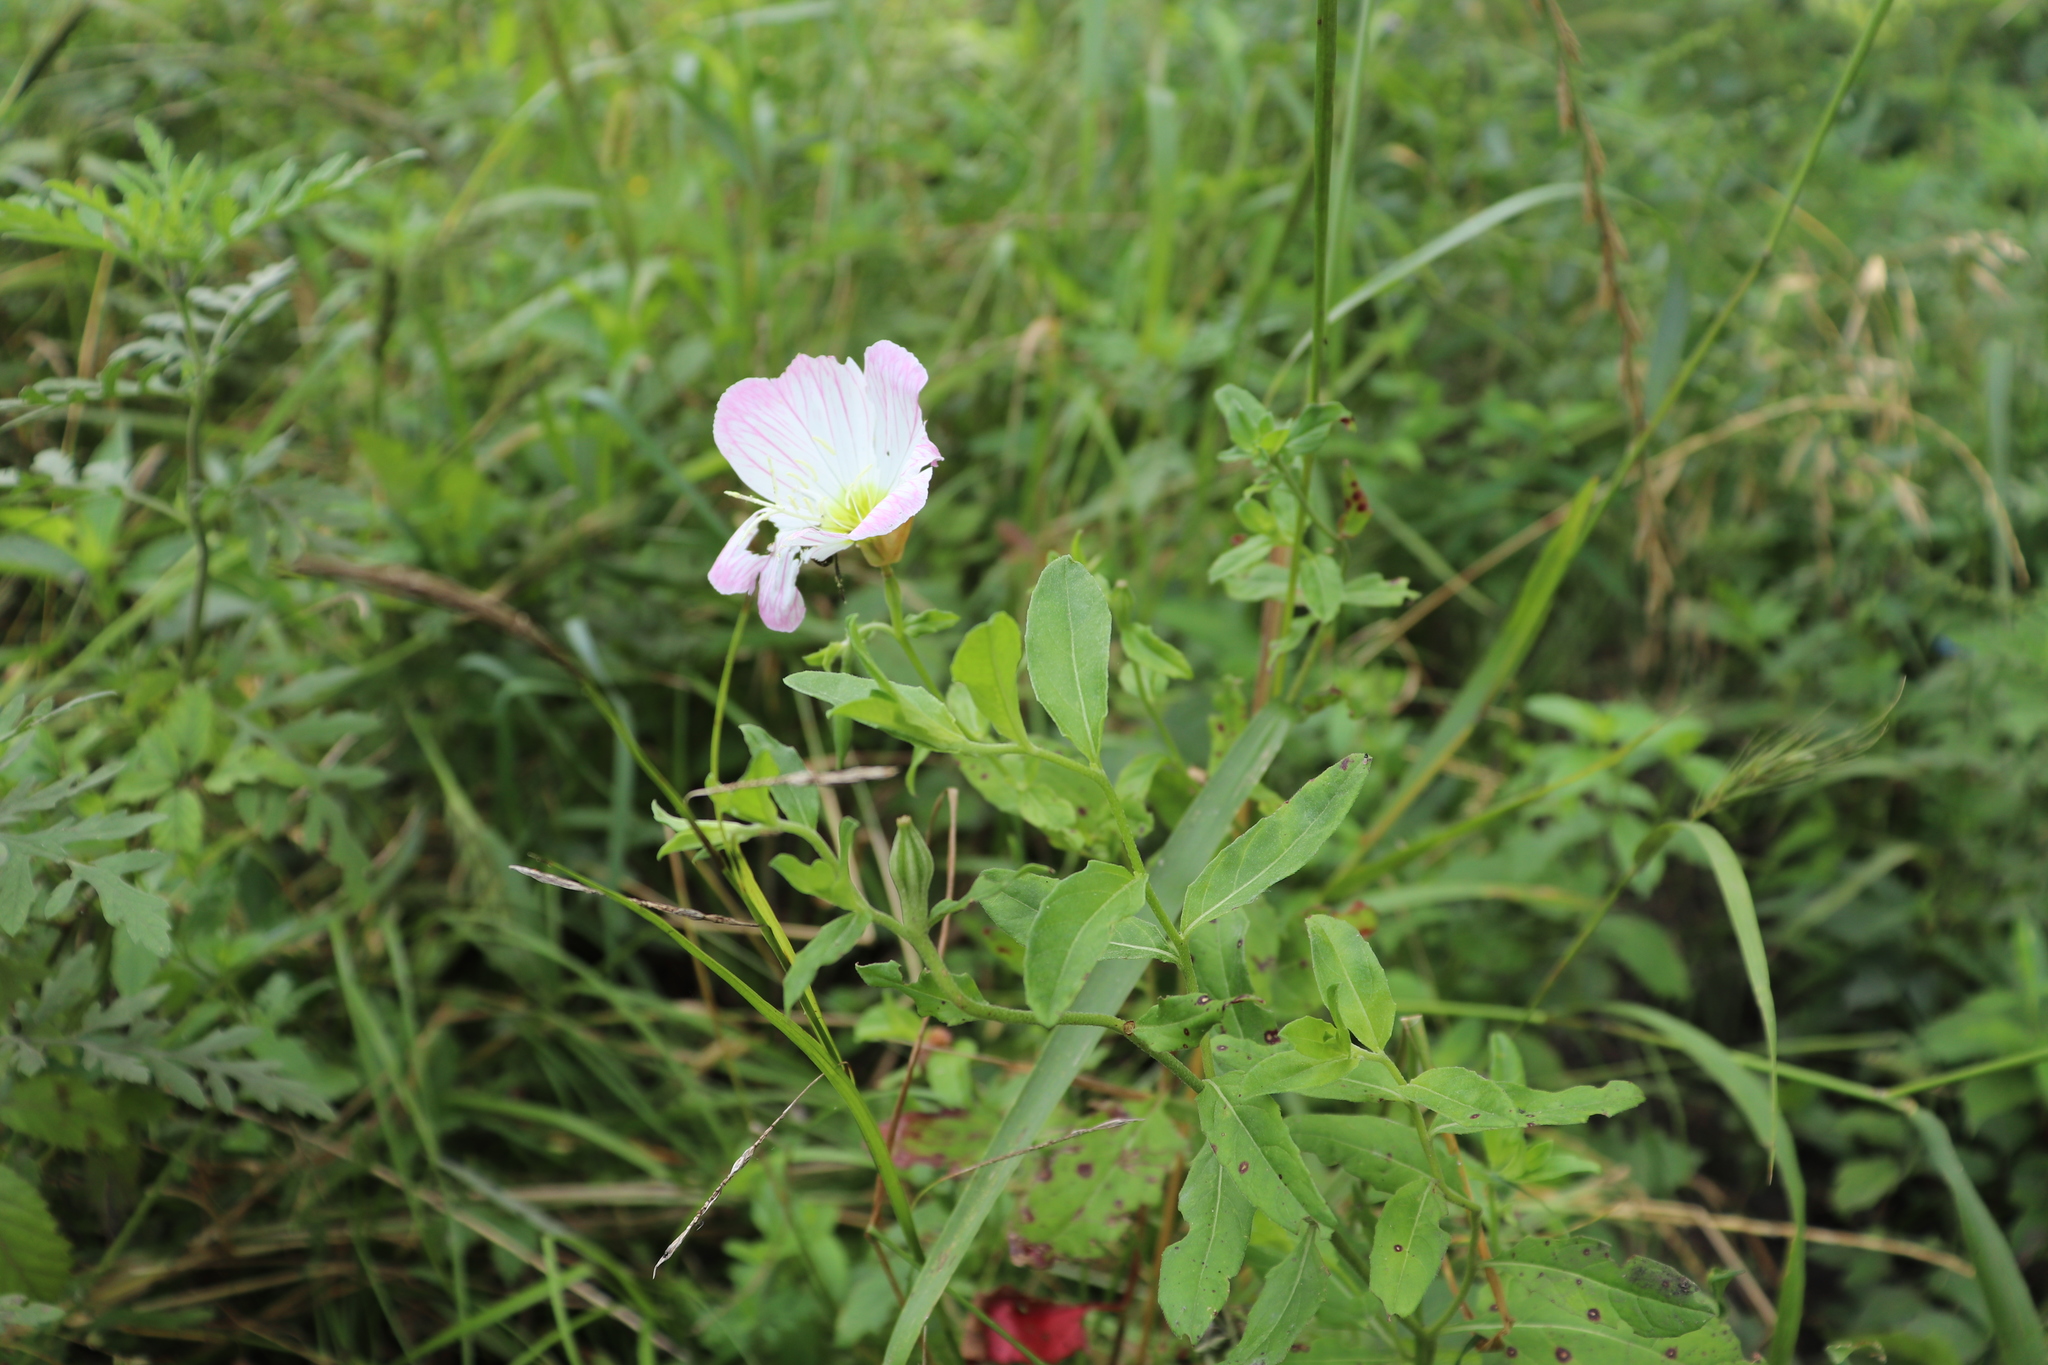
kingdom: Plantae
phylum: Tracheophyta
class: Magnoliopsida
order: Myrtales
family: Onagraceae
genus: Oenothera
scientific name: Oenothera speciosa
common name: White evening-primrose
